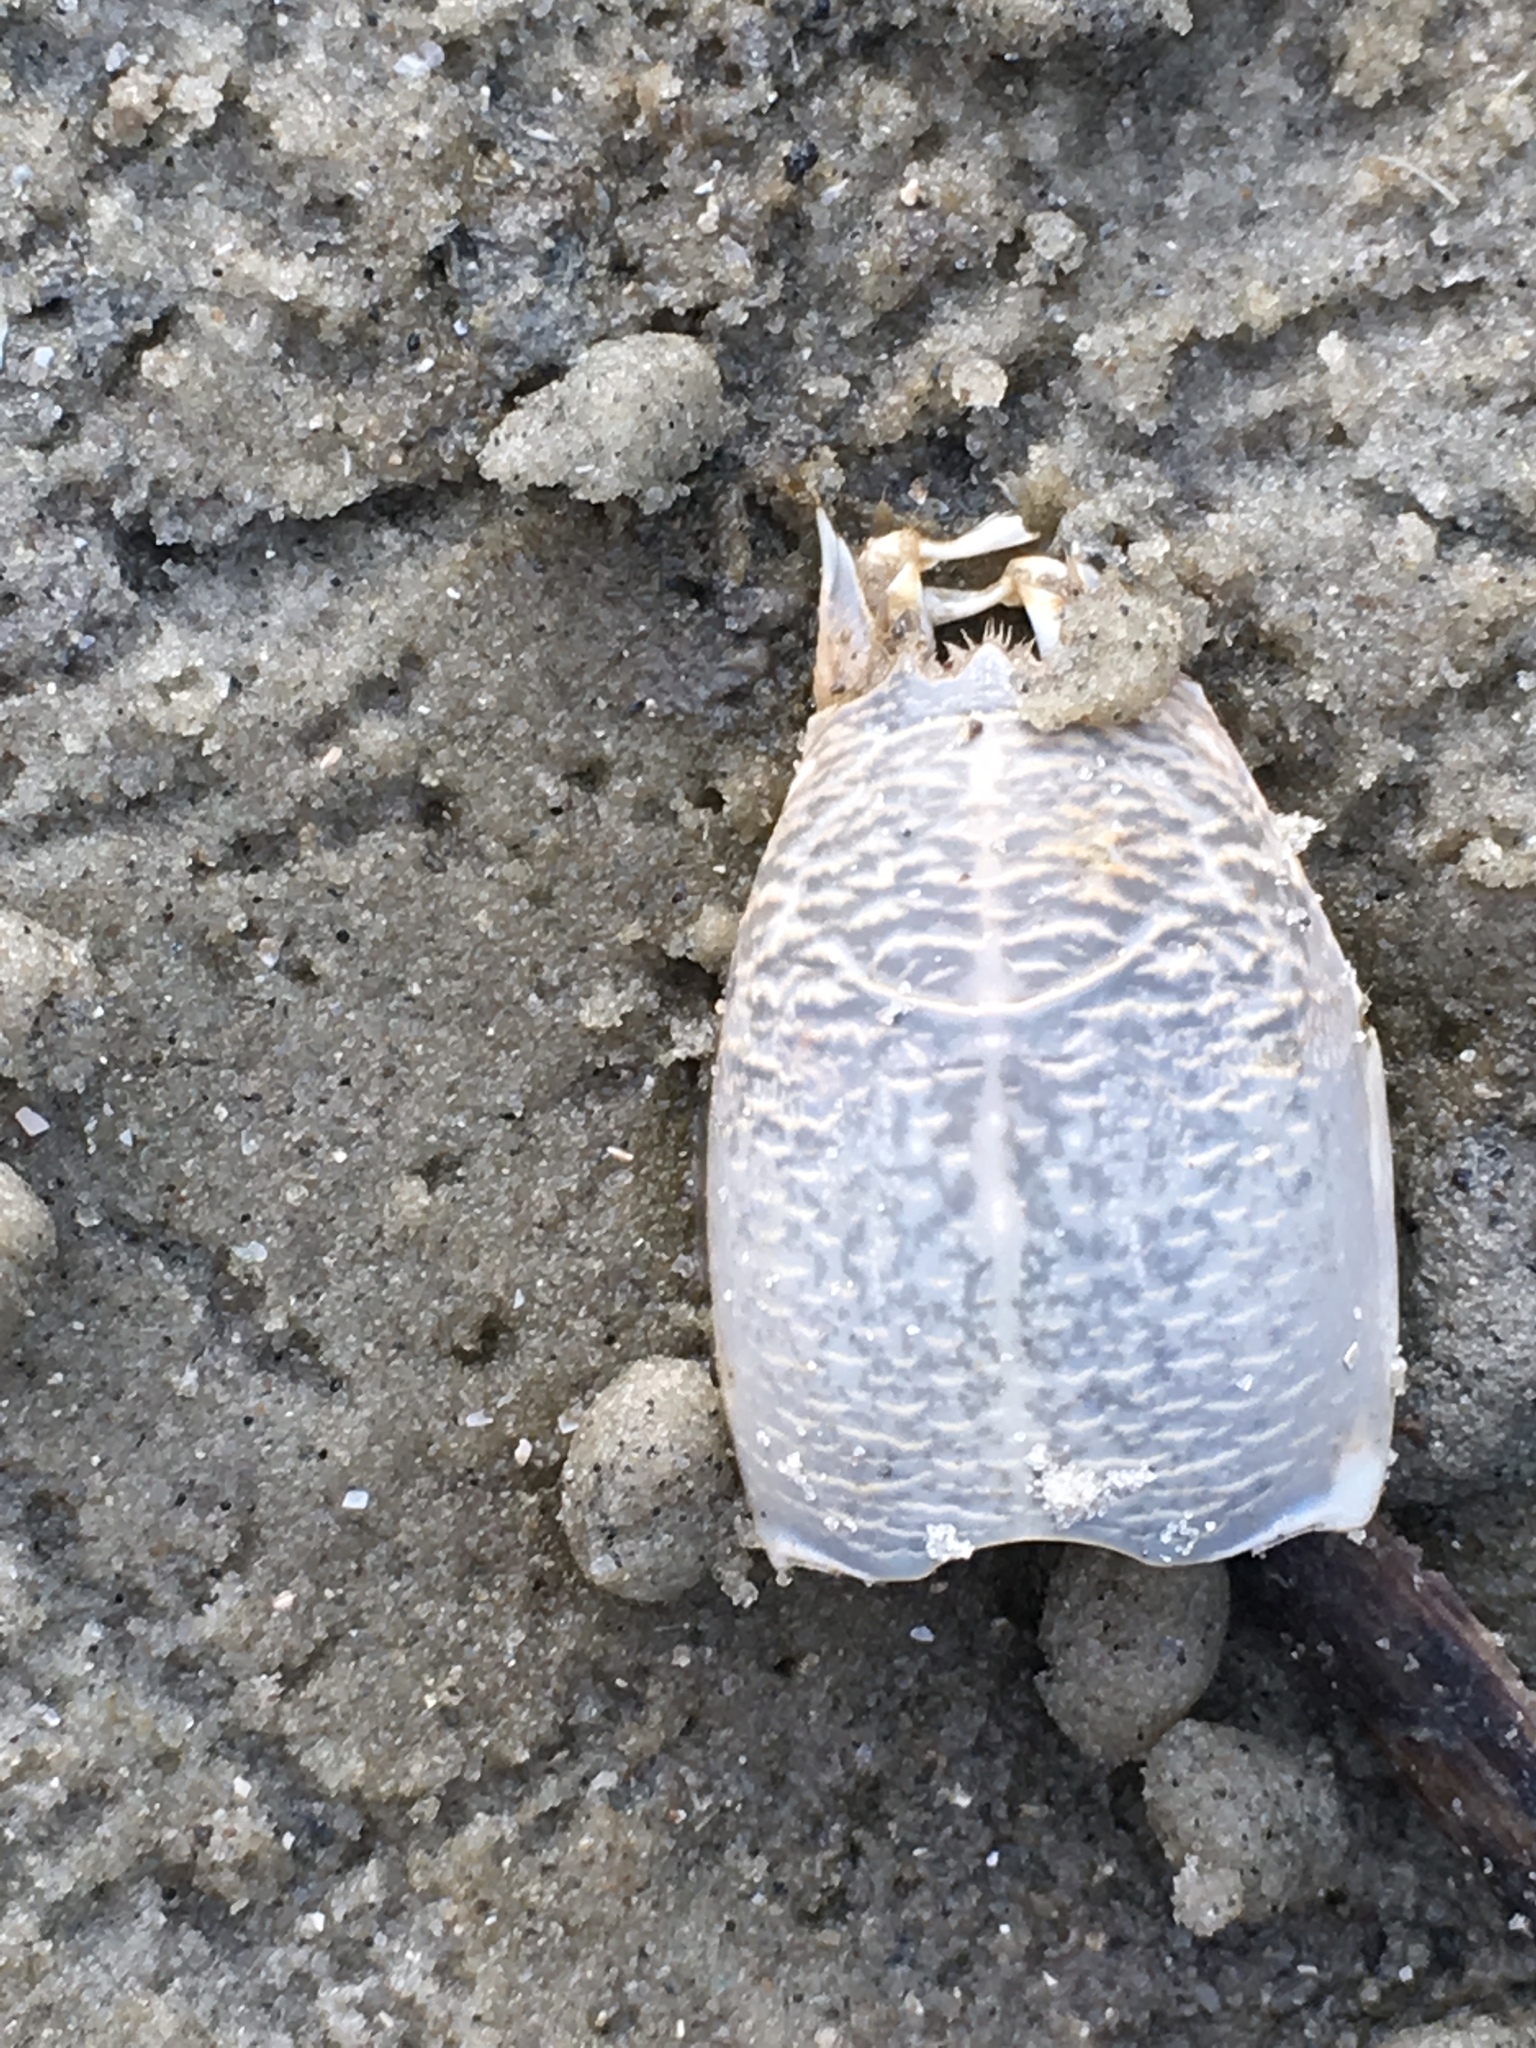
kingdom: Animalia
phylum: Arthropoda
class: Malacostraca
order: Decapoda
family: Hippidae
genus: Emerita
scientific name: Emerita talpoida
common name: Atlantic sand crab
